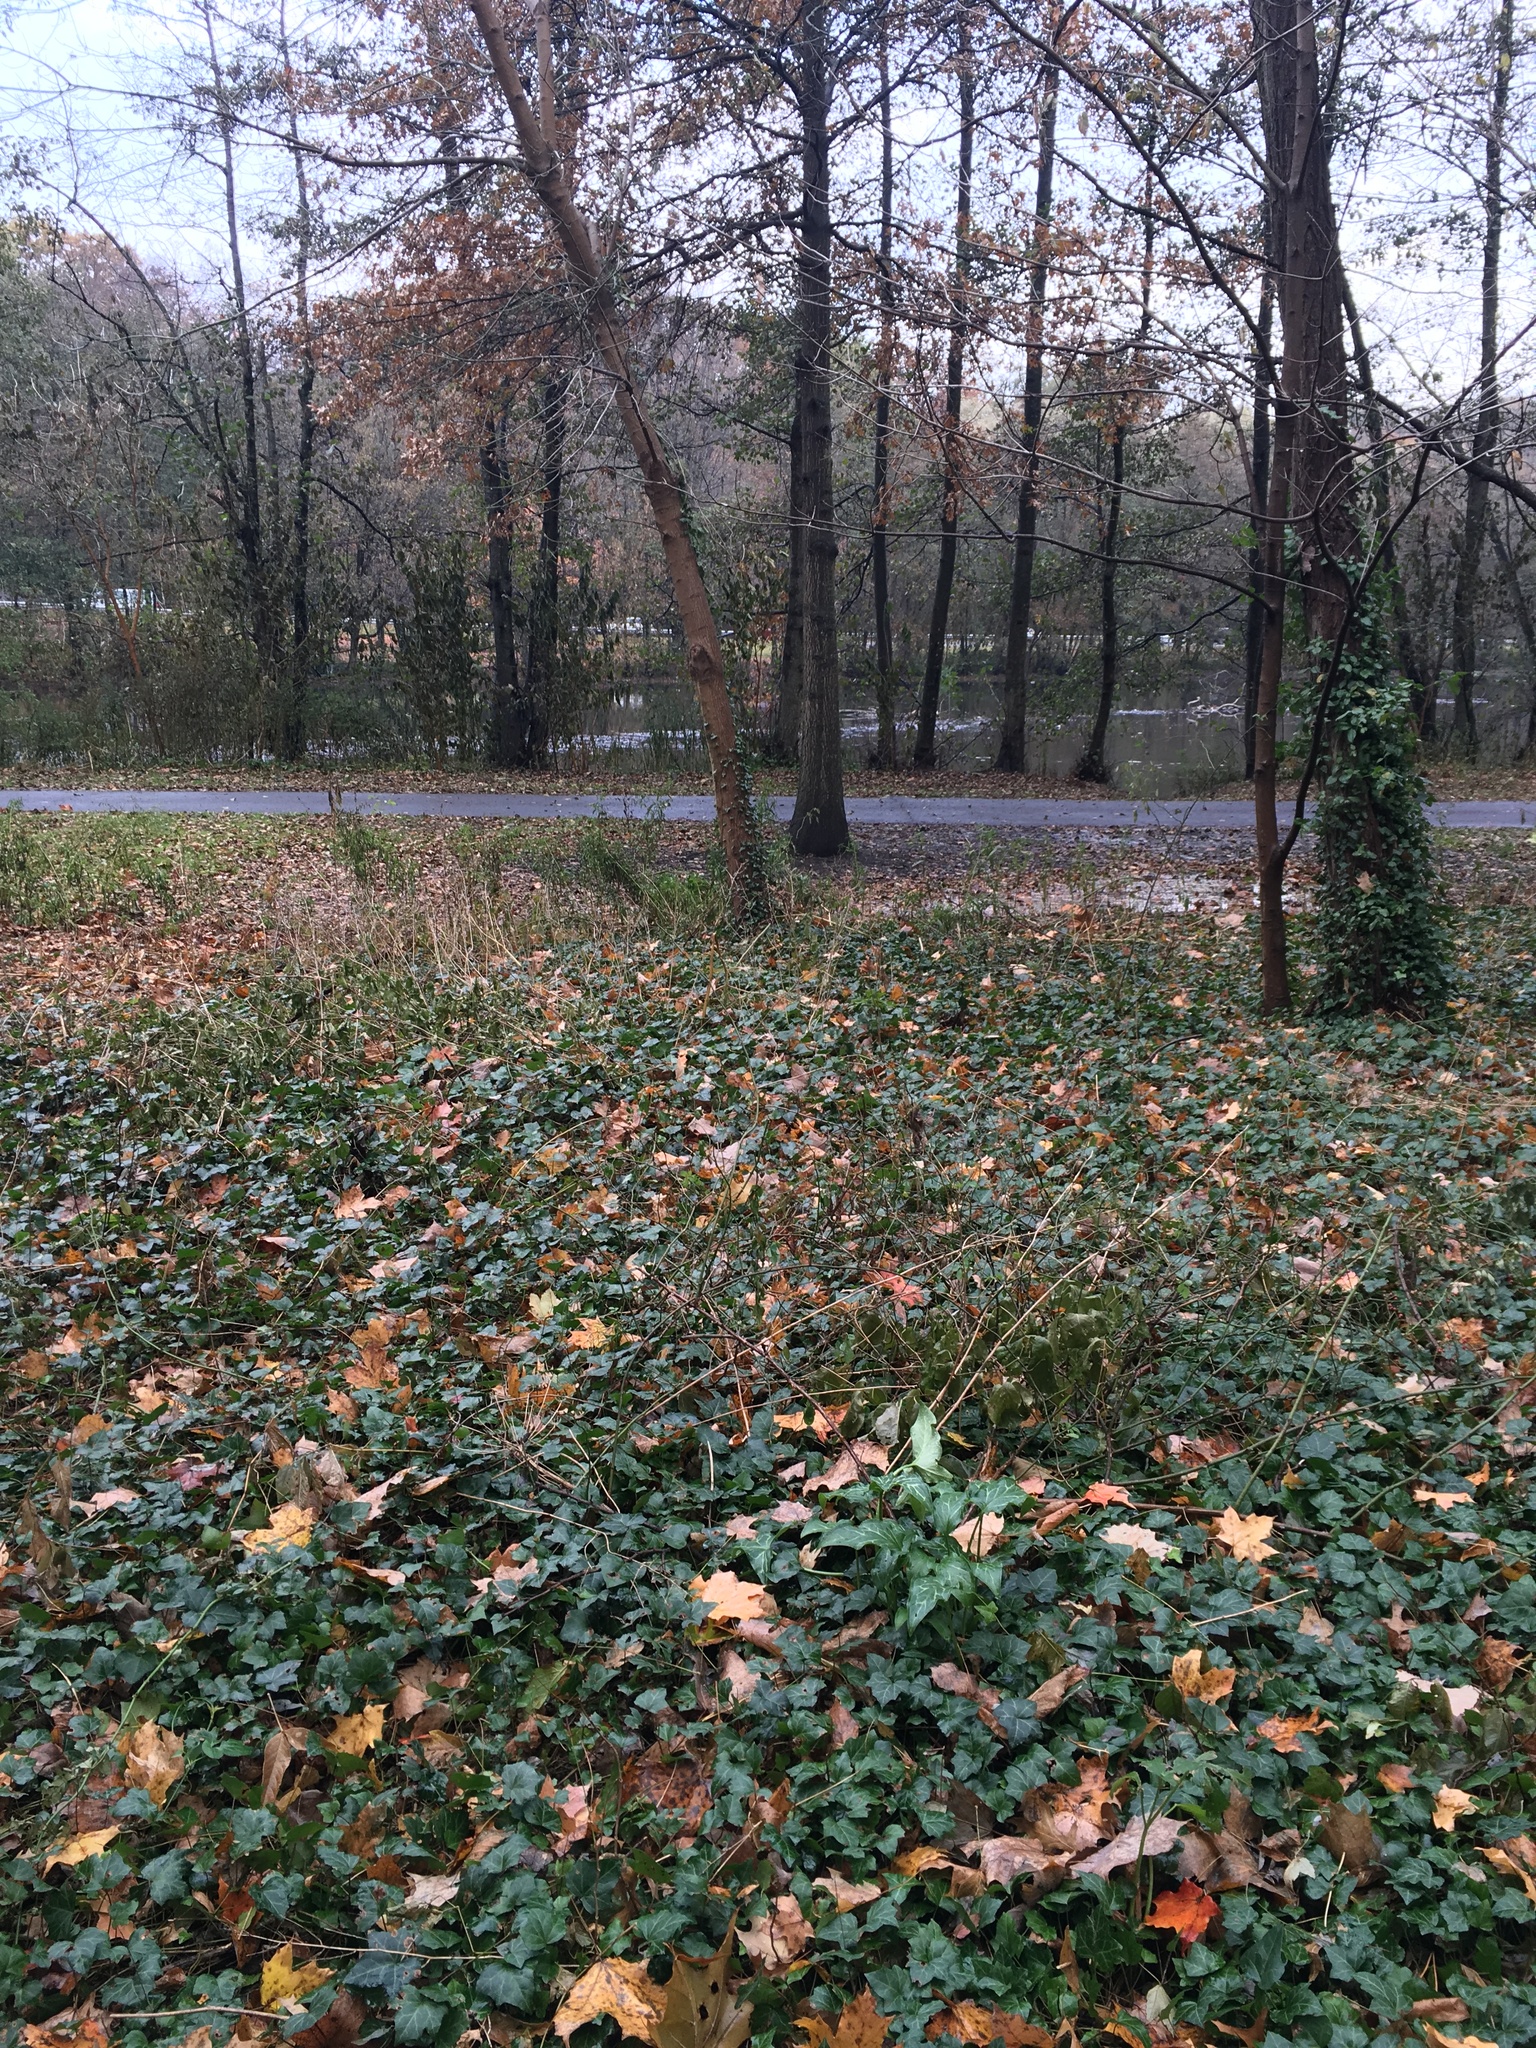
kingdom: Plantae
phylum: Tracheophyta
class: Liliopsida
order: Alismatales
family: Araceae
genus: Arum
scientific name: Arum italicum
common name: Italian lords-and-ladies
